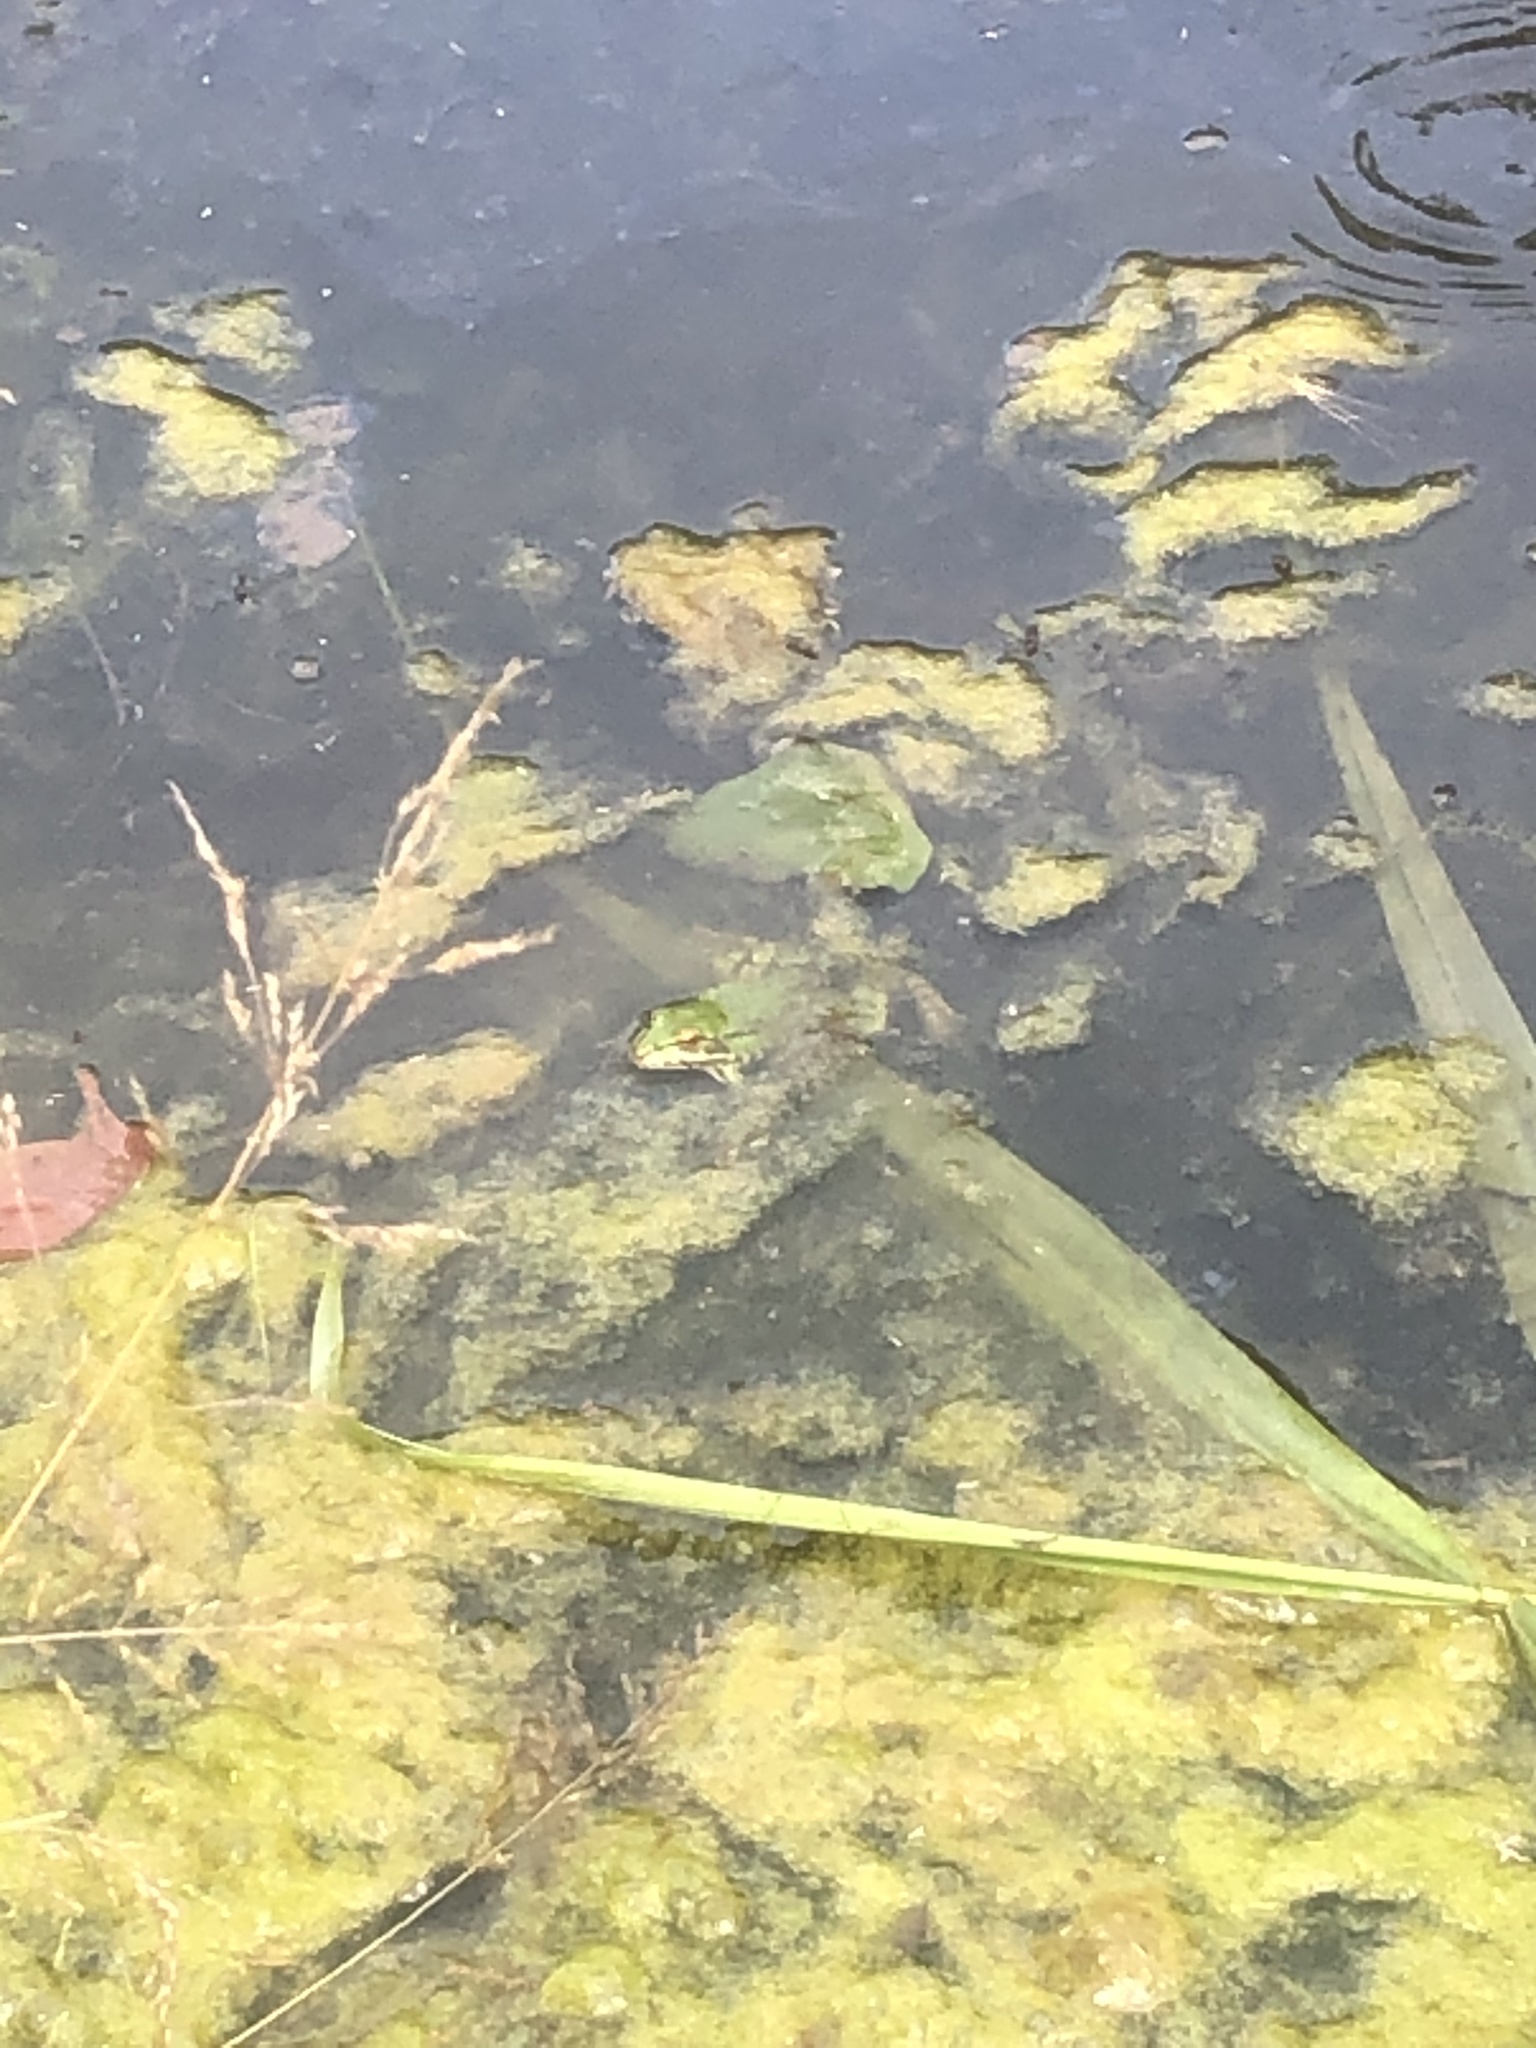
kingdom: Animalia
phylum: Chordata
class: Amphibia
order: Anura
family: Ranidae
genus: Pelophylax
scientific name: Pelophylax
